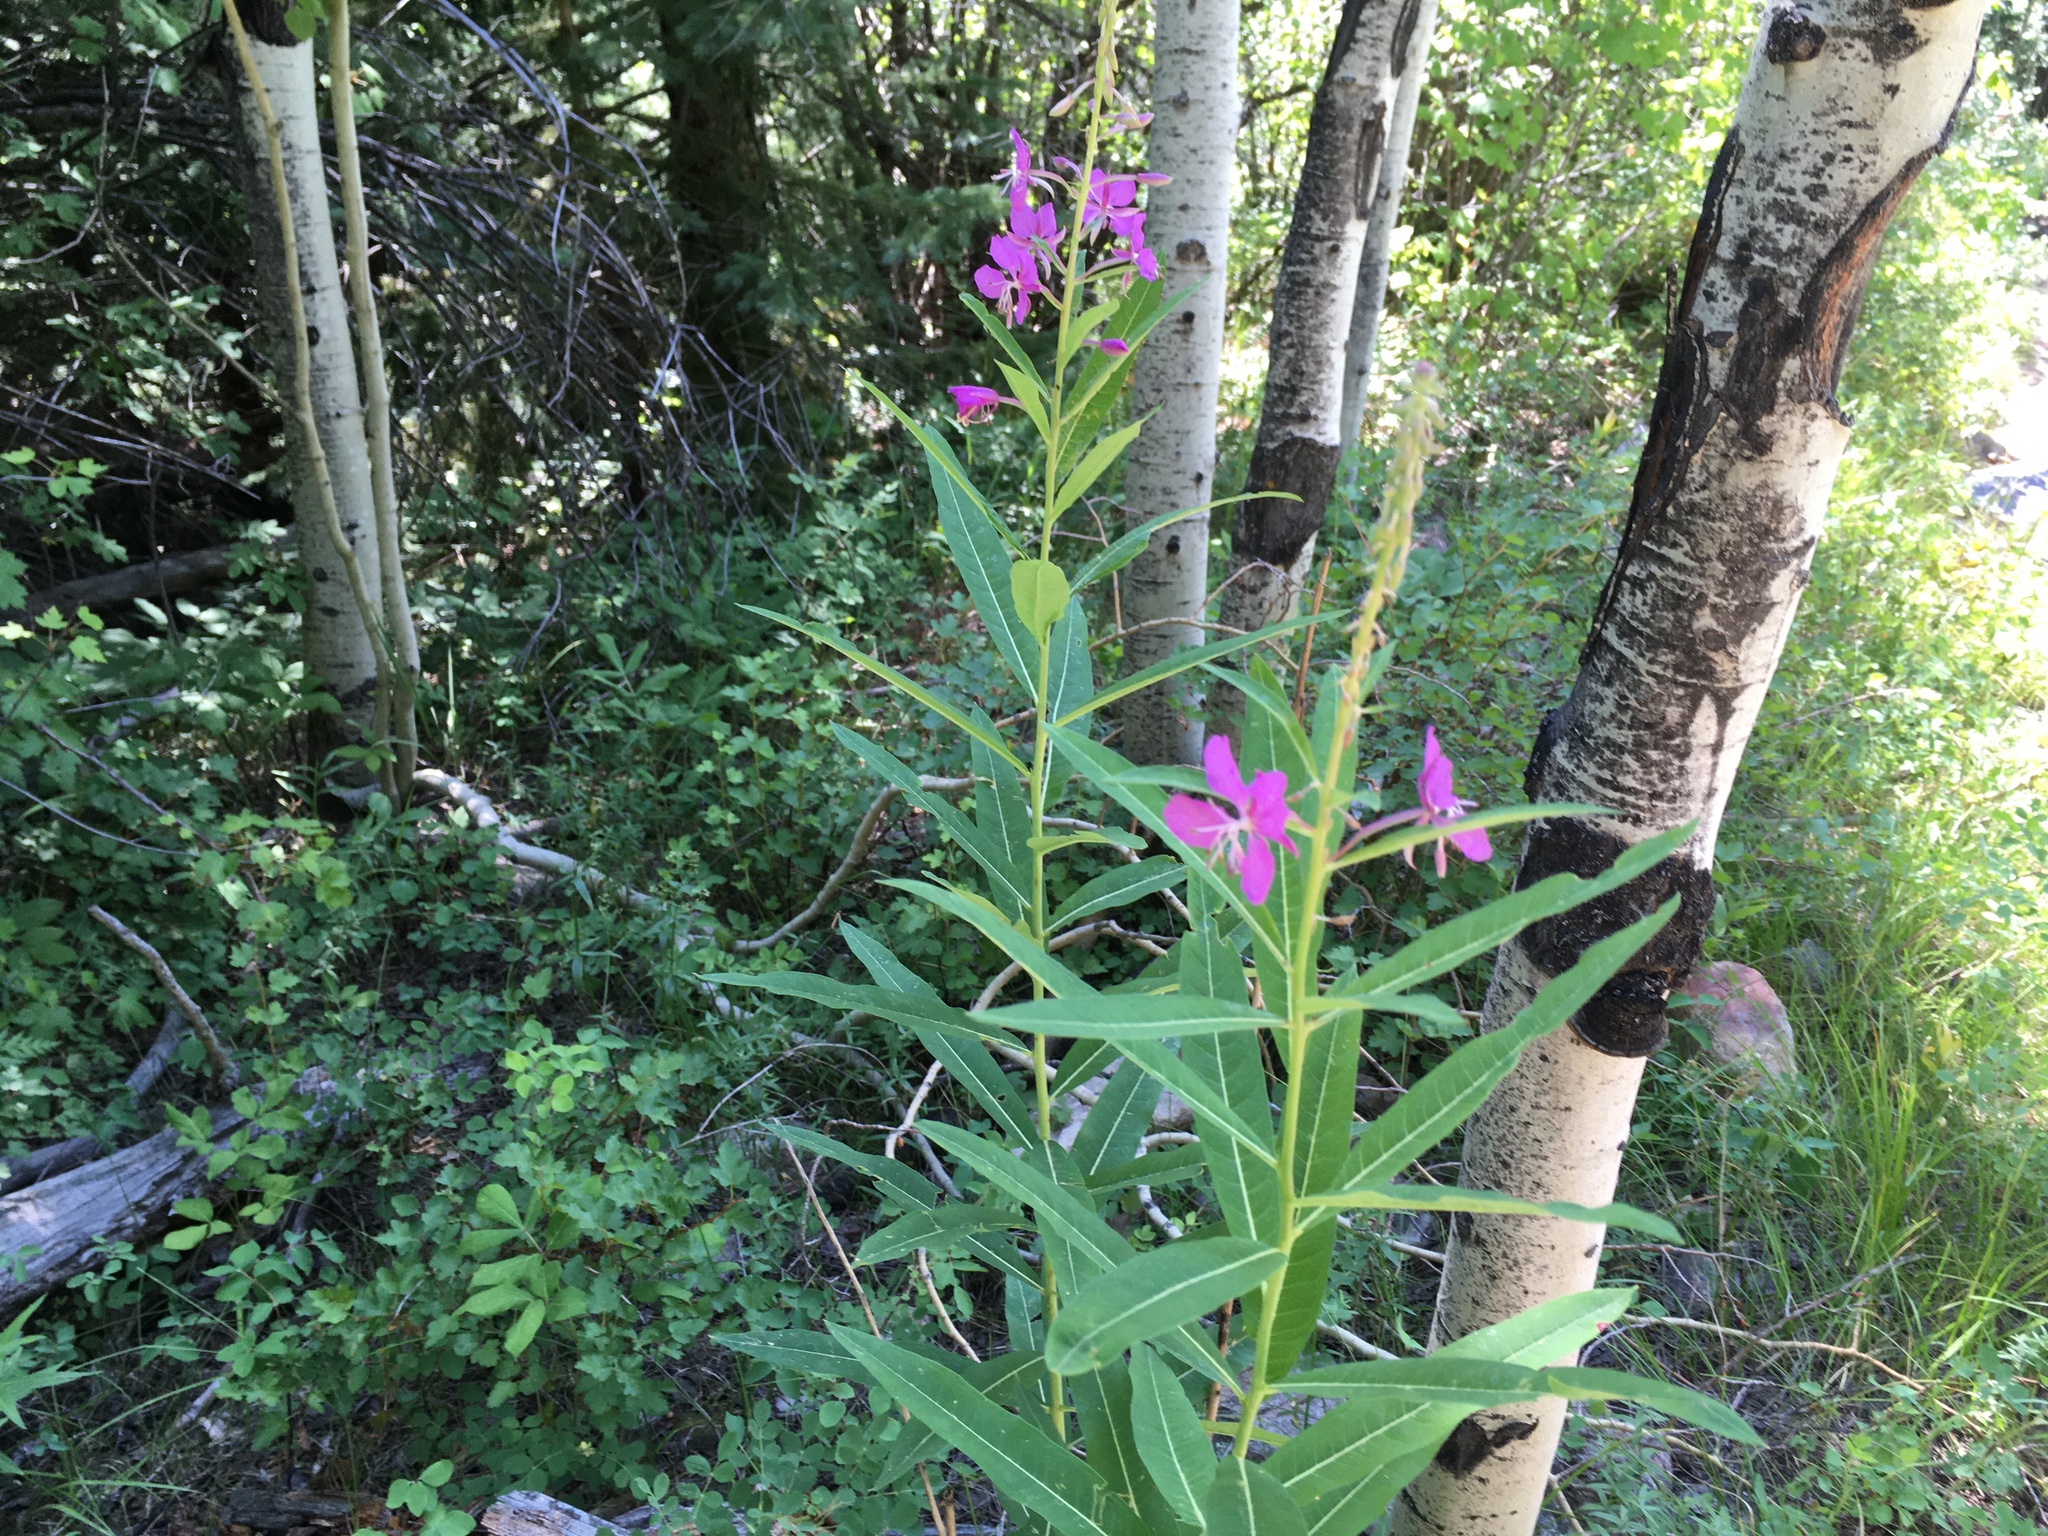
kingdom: Plantae
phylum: Tracheophyta
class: Magnoliopsida
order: Myrtales
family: Onagraceae
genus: Chamaenerion
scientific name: Chamaenerion angustifolium
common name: Fireweed
